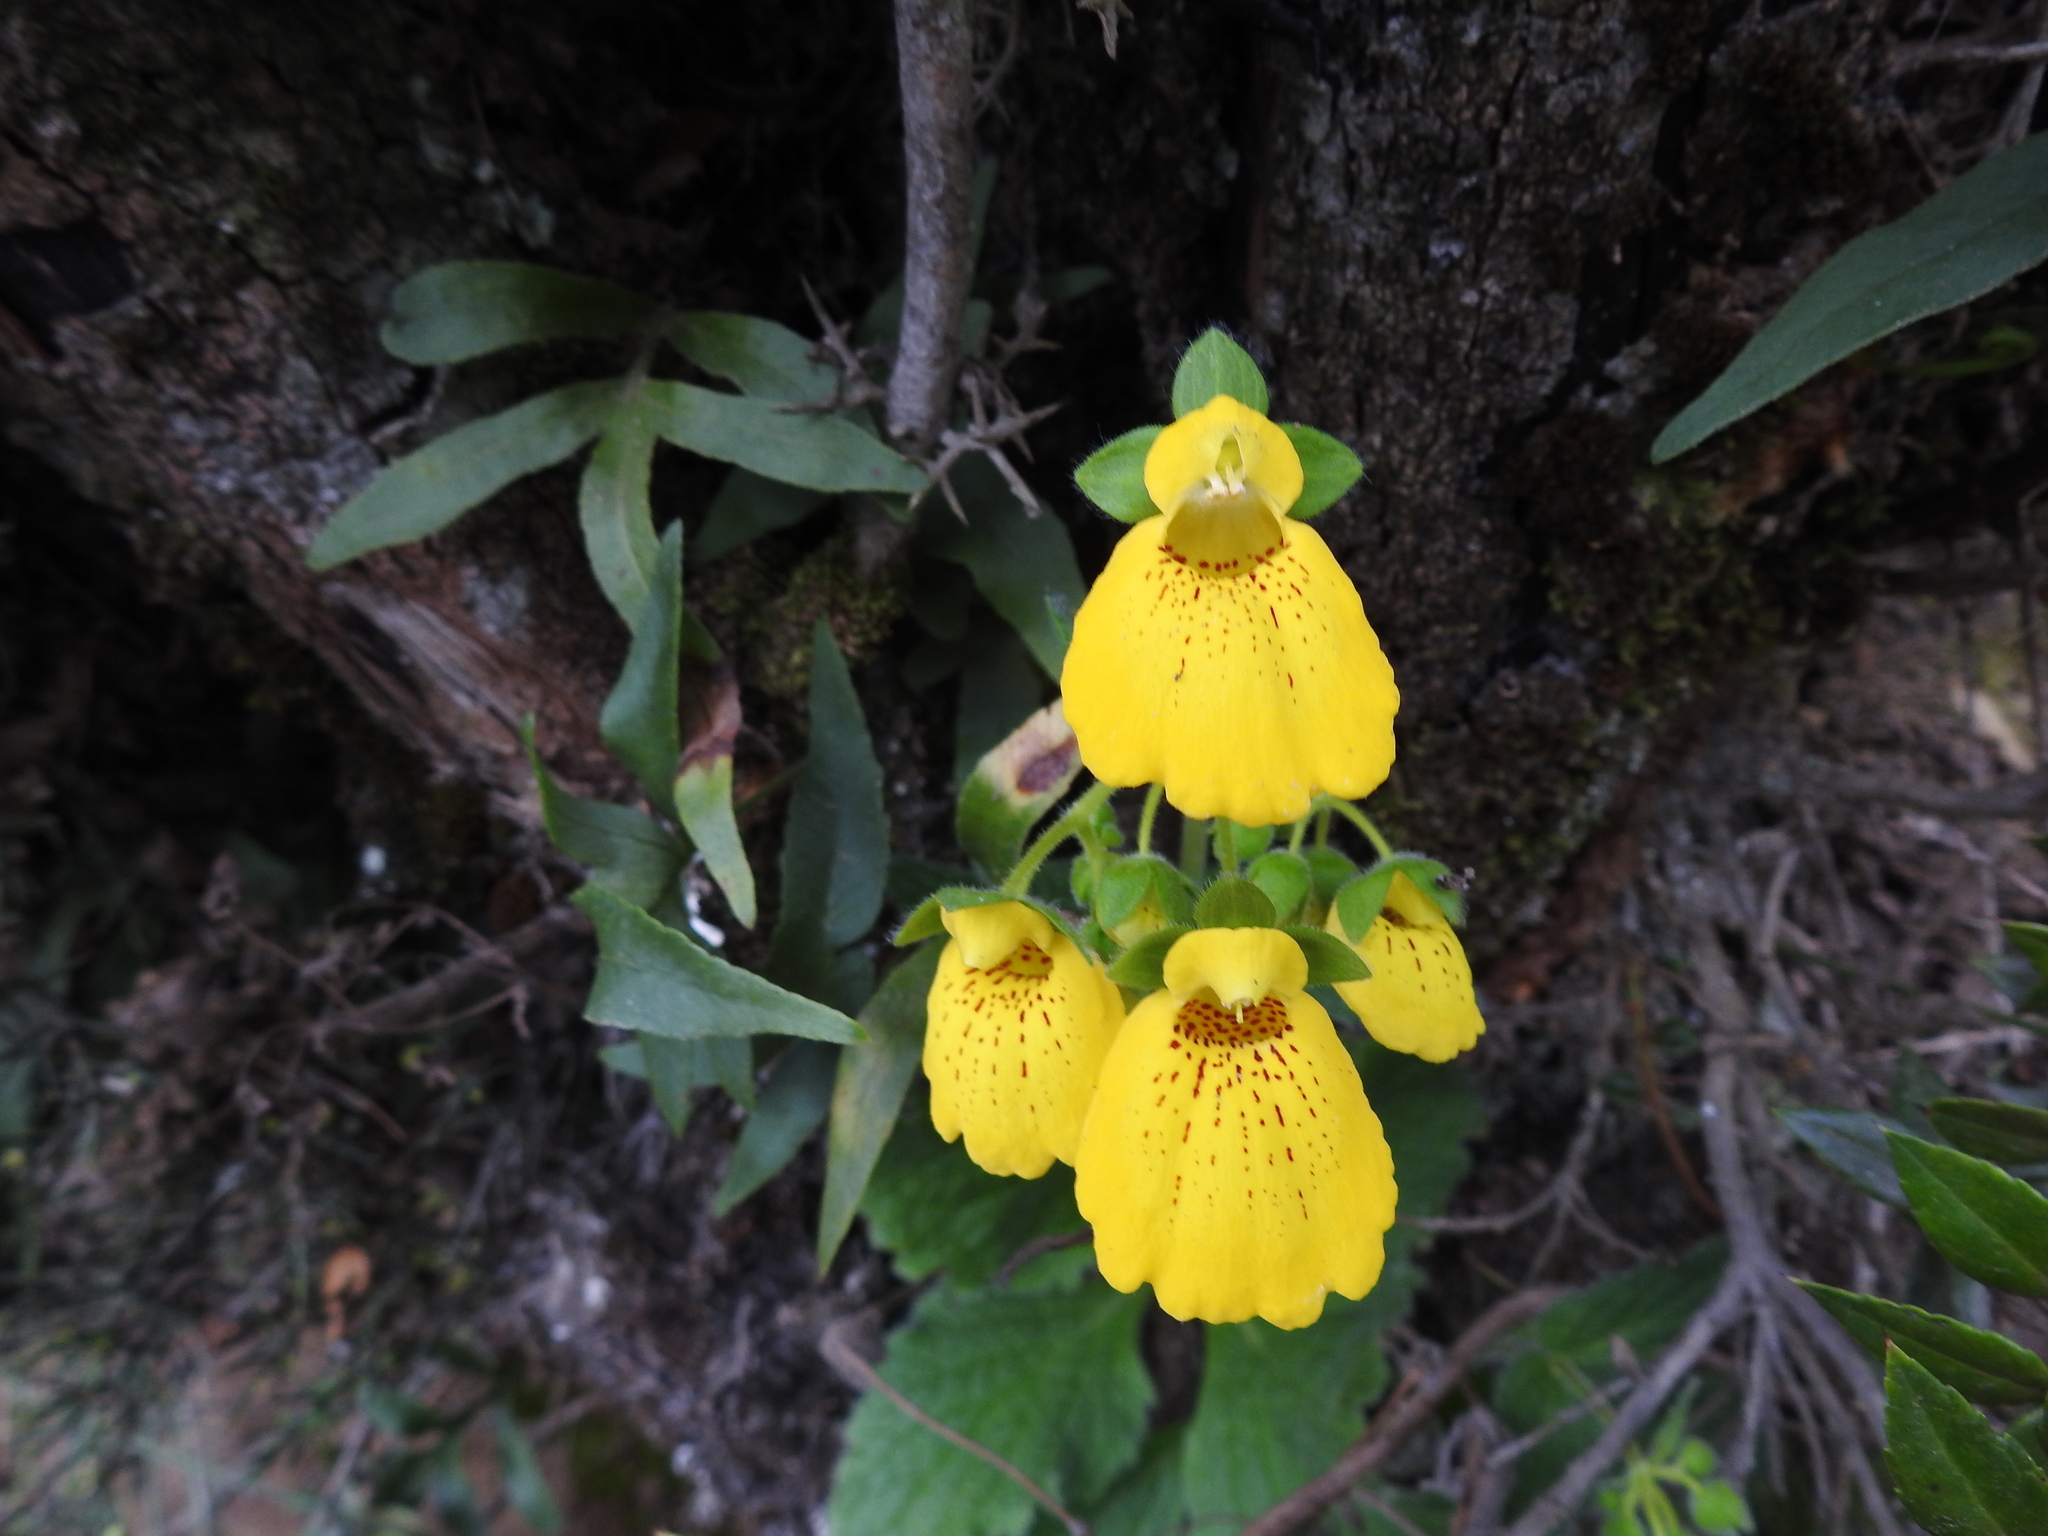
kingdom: Plantae
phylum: Tracheophyta
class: Magnoliopsida
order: Lamiales
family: Calceolariaceae
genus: Calceolaria
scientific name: Calceolaria crenatiflora
